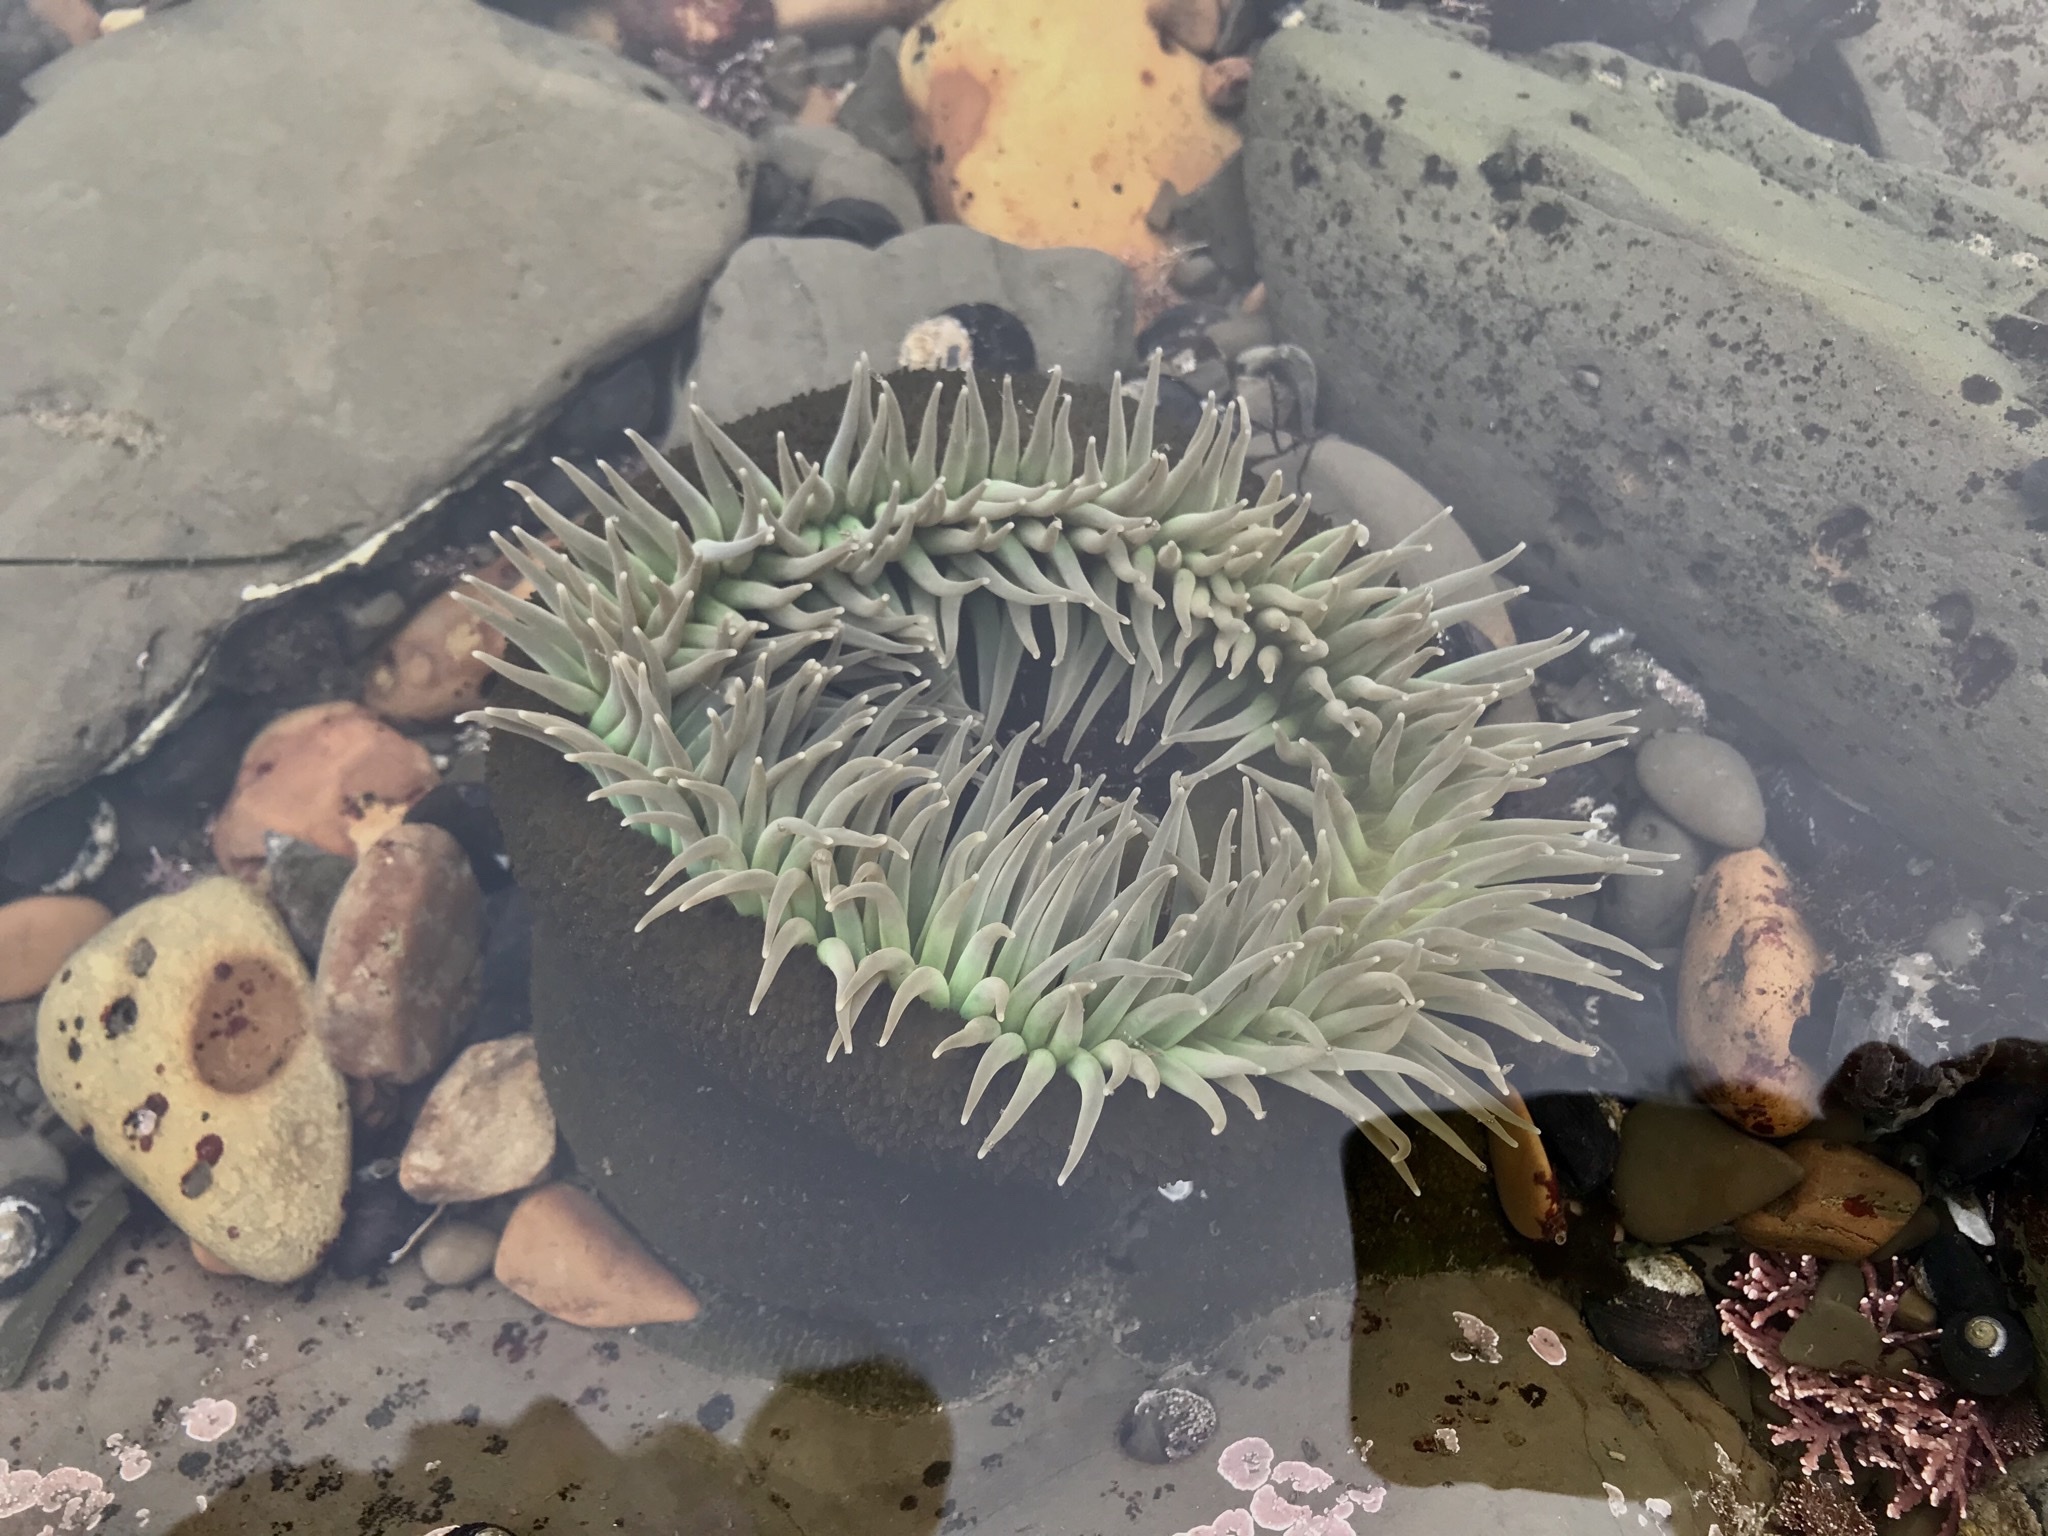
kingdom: Animalia
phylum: Cnidaria
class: Anthozoa
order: Actiniaria
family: Actiniidae
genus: Anthopleura
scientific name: Anthopleura xanthogrammica
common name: Giant green anemone
